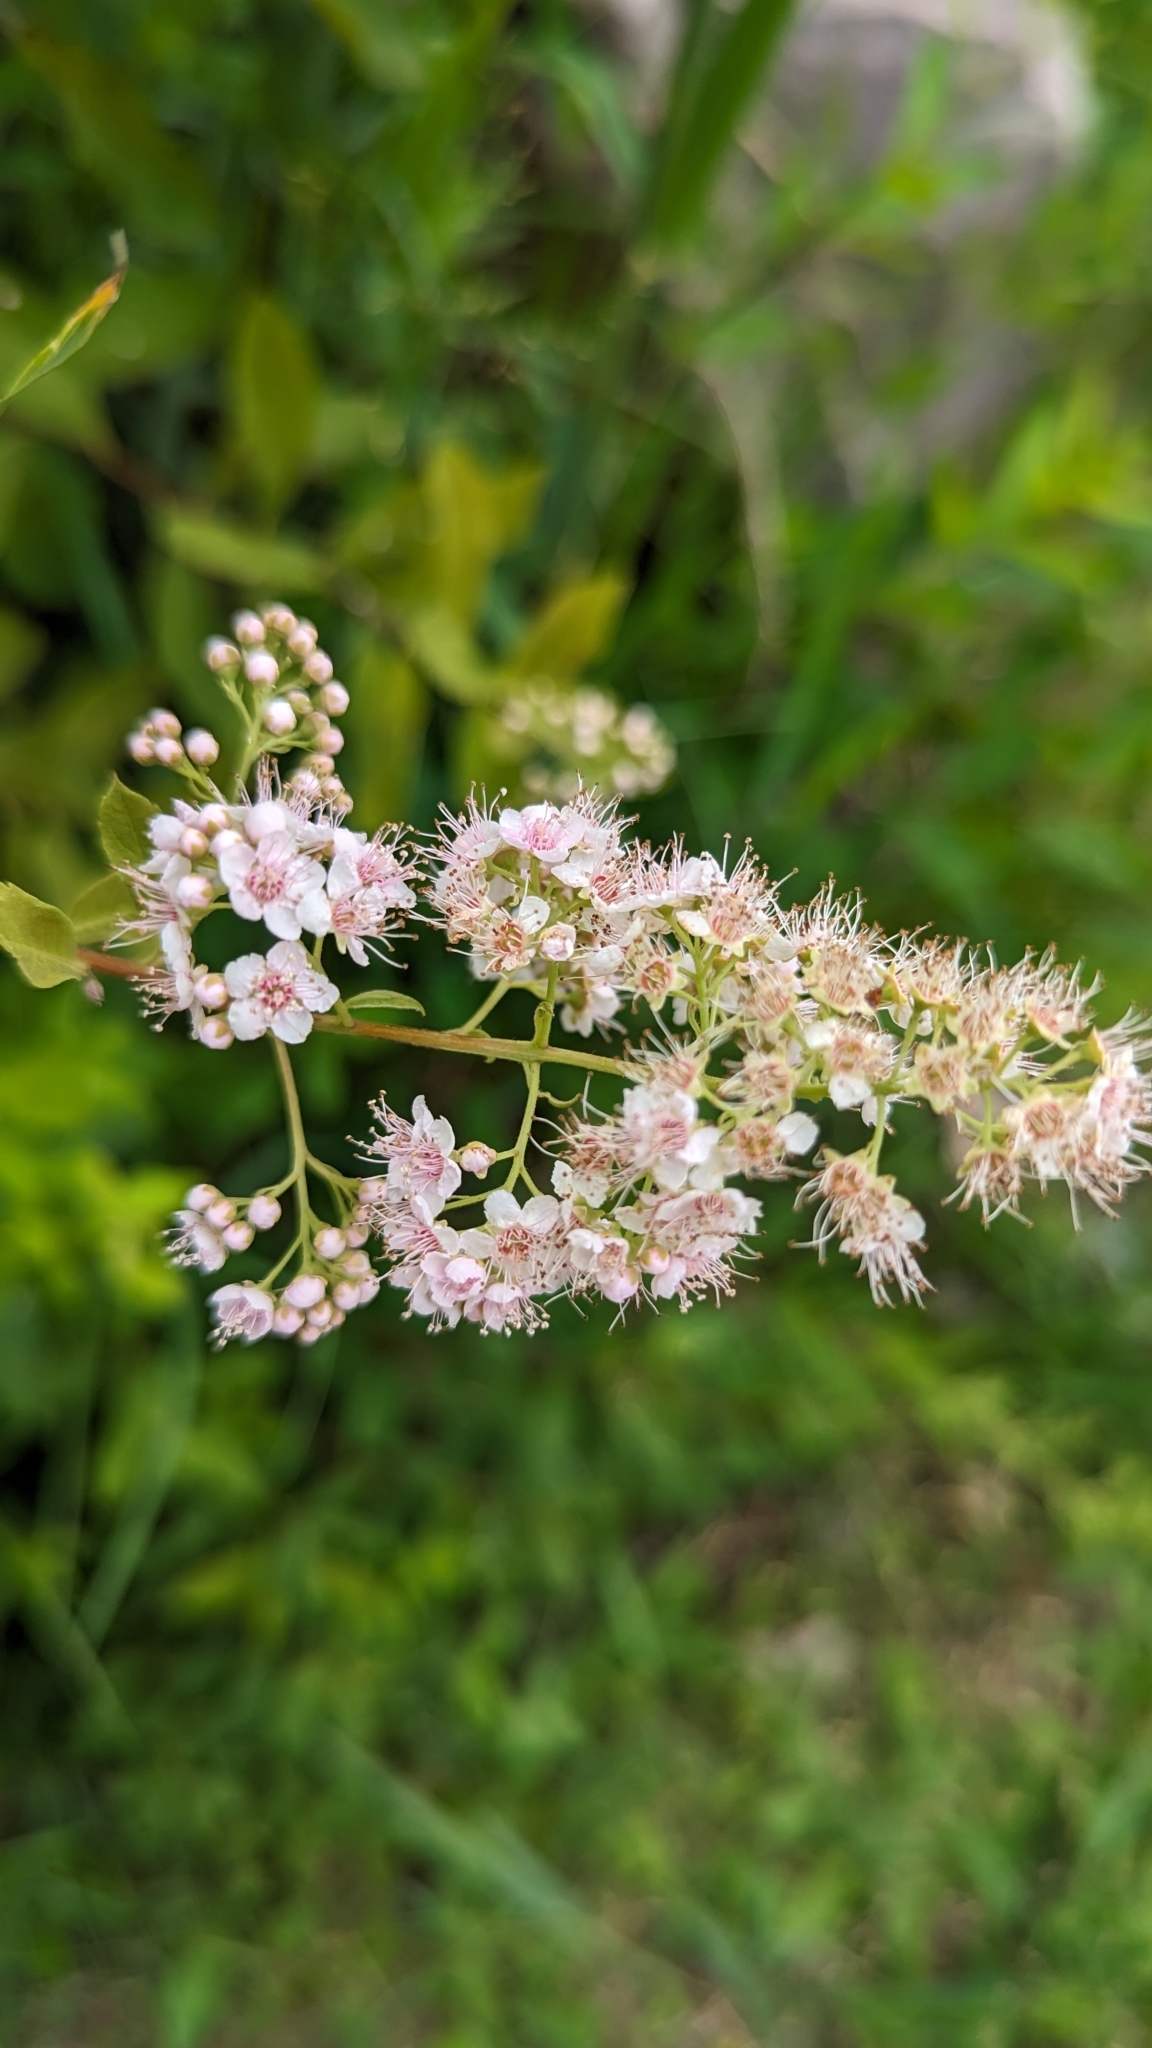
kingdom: Plantae
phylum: Tracheophyta
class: Magnoliopsida
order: Rosales
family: Rosaceae
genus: Spiraea
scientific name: Spiraea alba
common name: Pale bridewort
